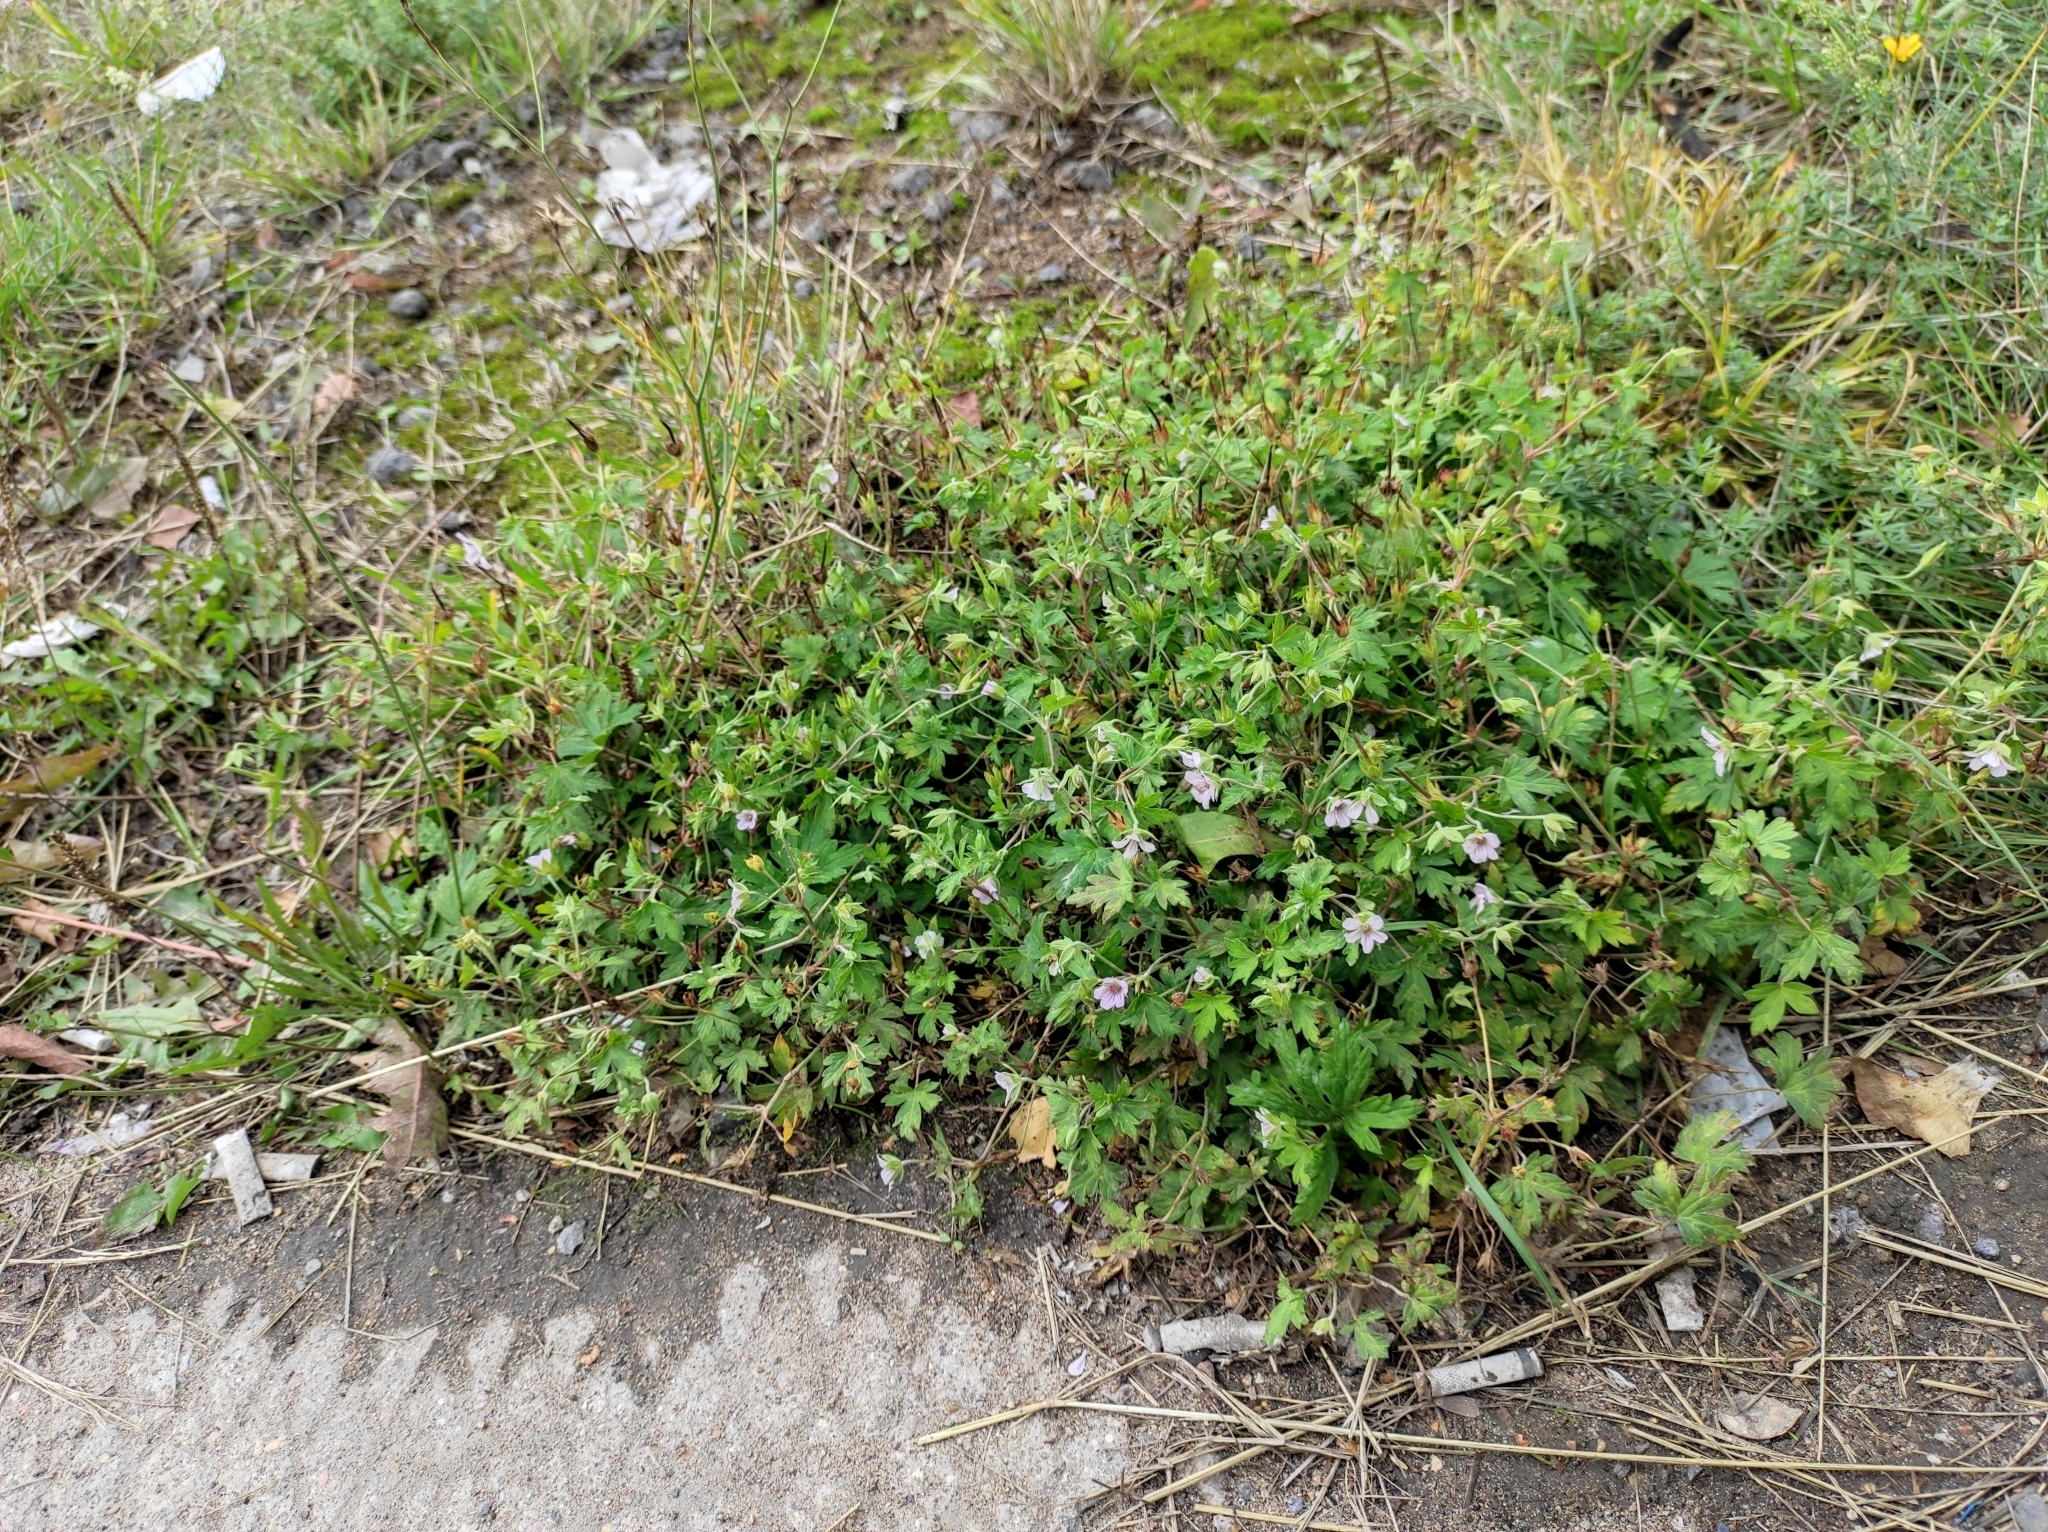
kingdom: Plantae
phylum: Tracheophyta
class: Magnoliopsida
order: Geraniales
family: Geraniaceae
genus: Geranium
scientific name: Geranium sibiricum
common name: Siberian crane's-bill
